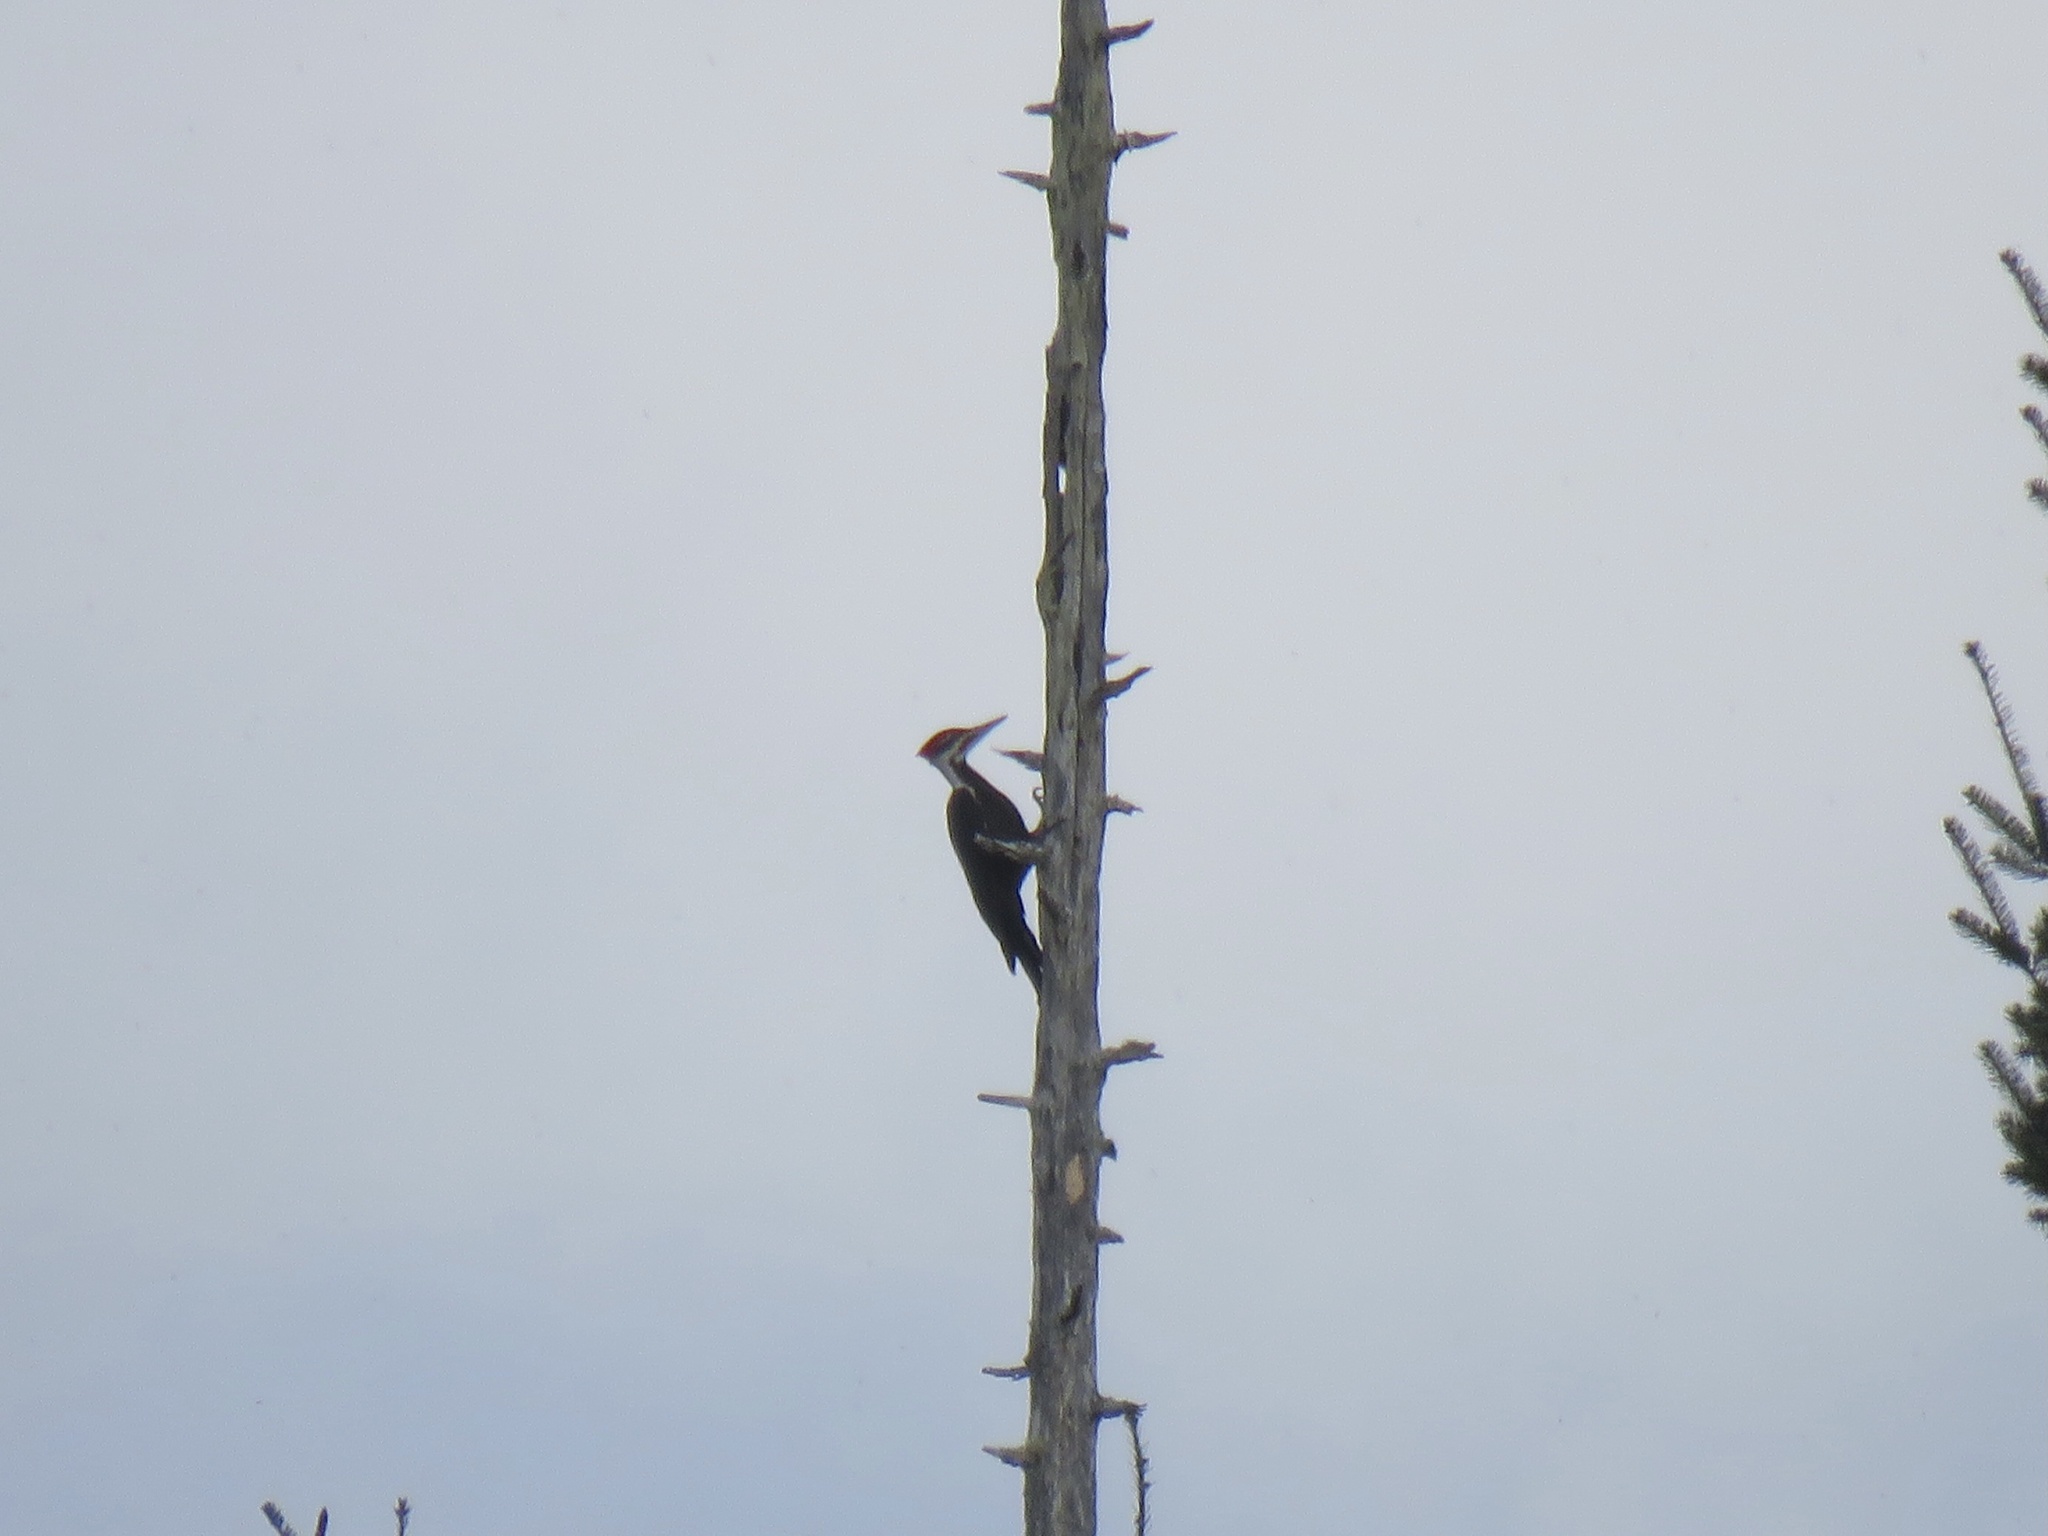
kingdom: Animalia
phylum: Chordata
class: Aves
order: Piciformes
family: Picidae
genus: Dryocopus
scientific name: Dryocopus pileatus
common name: Pileated woodpecker
